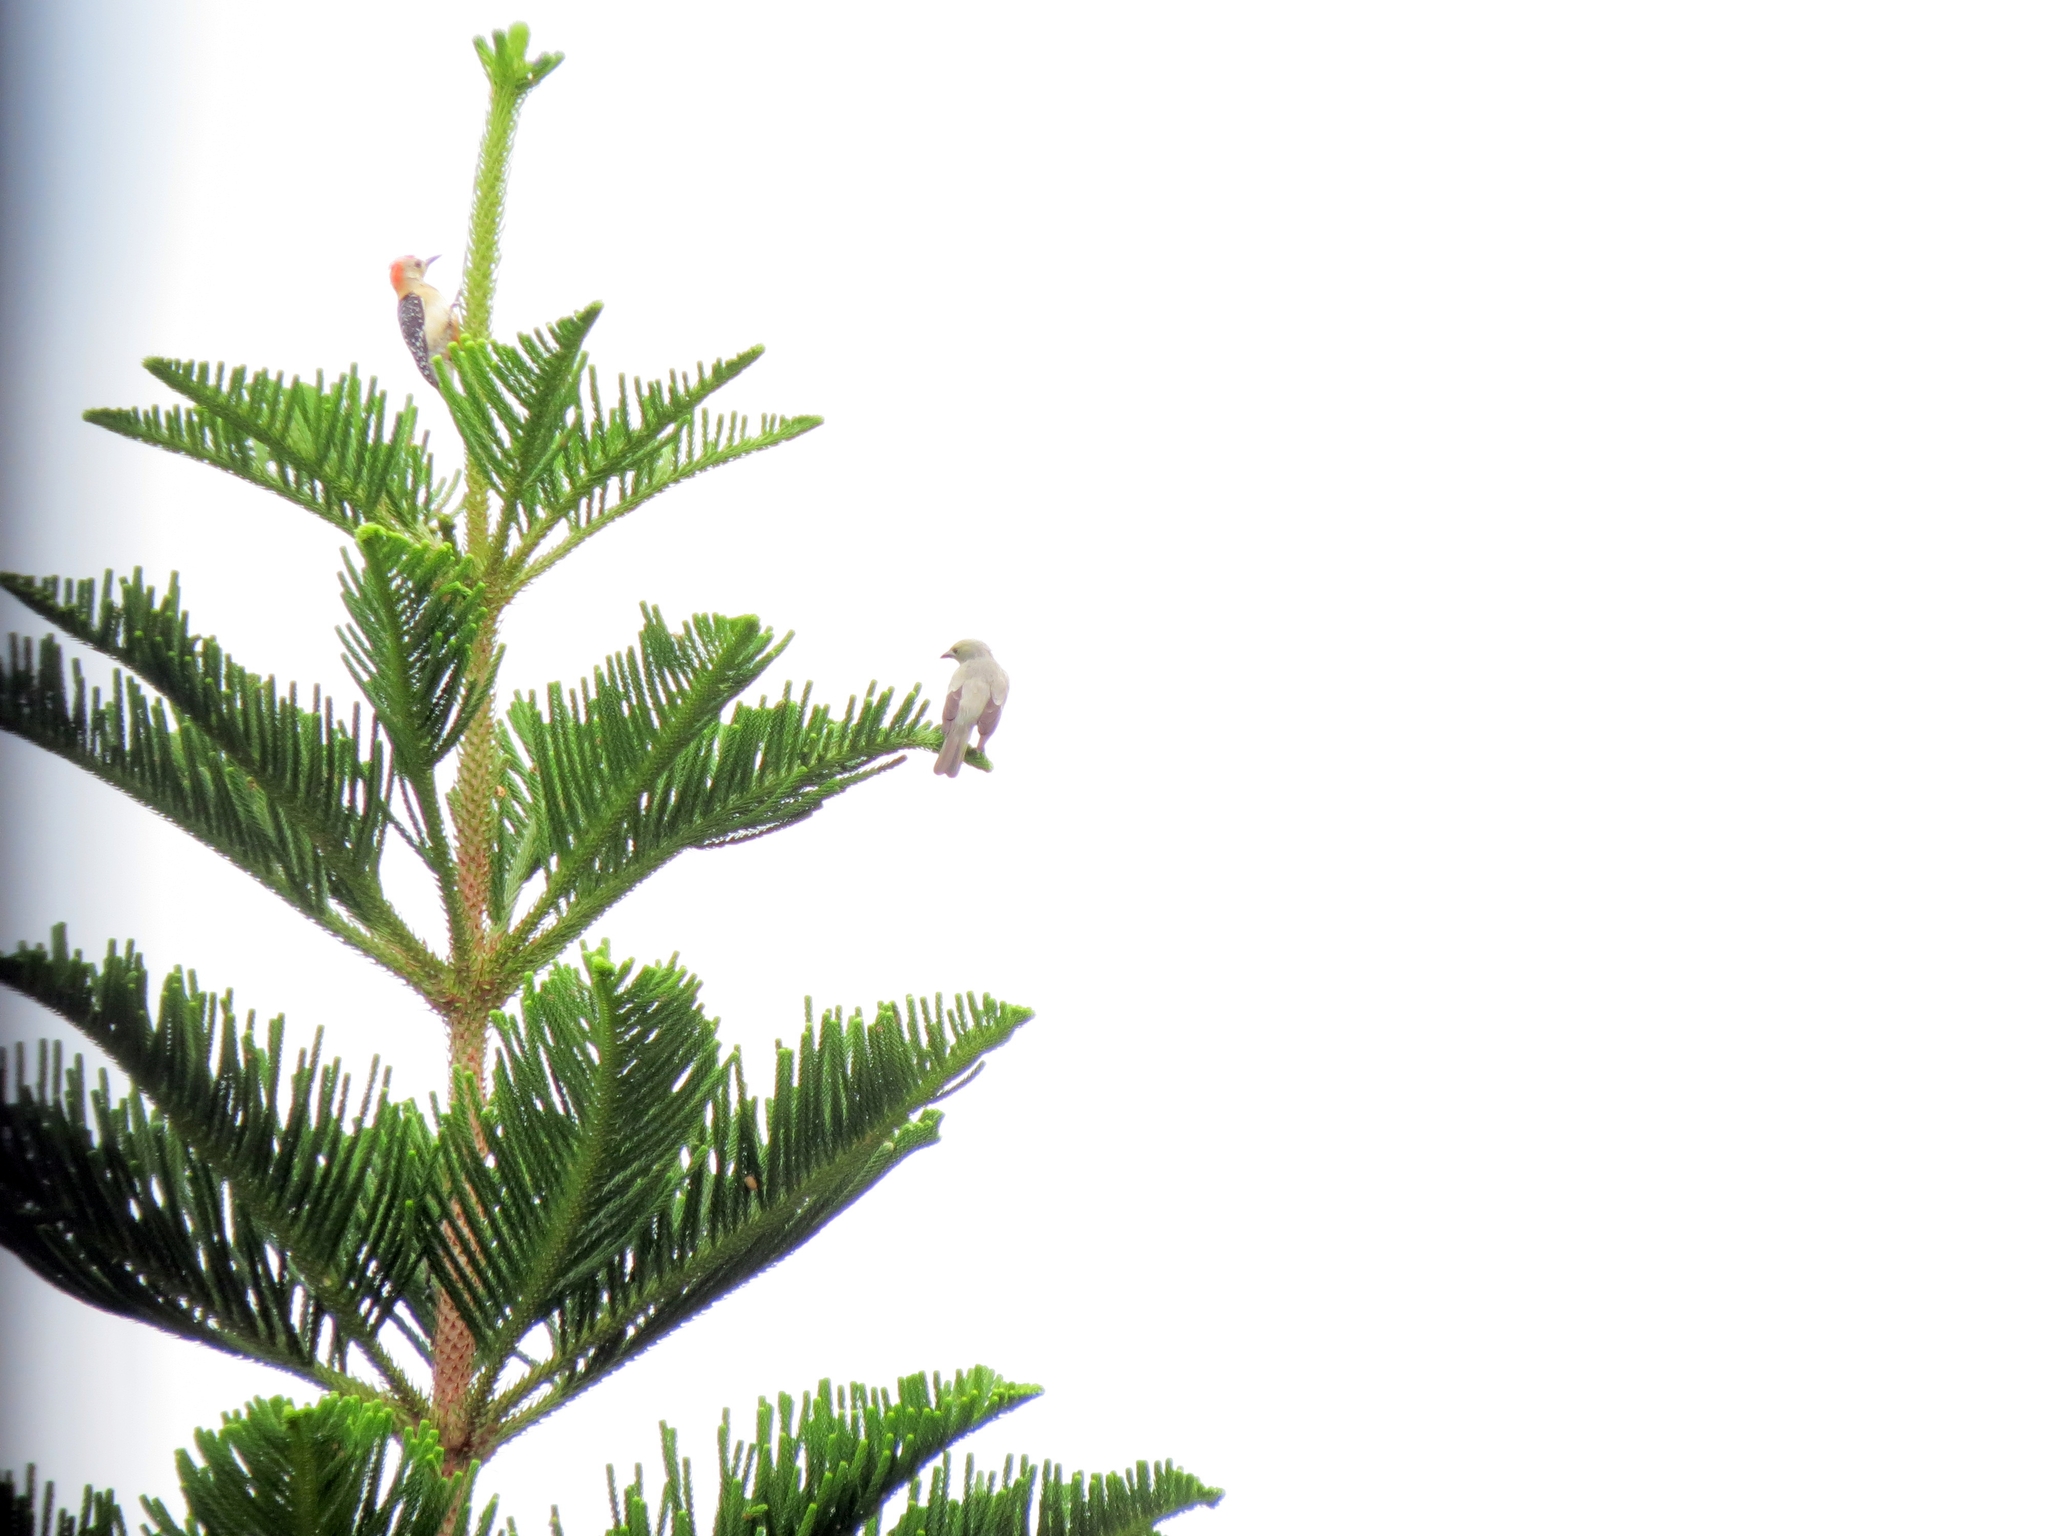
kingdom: Animalia
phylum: Chordata
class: Aves
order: Piciformes
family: Picidae
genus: Melanerpes
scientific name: Melanerpes rubricapillus
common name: Red-crowned woodpecker
